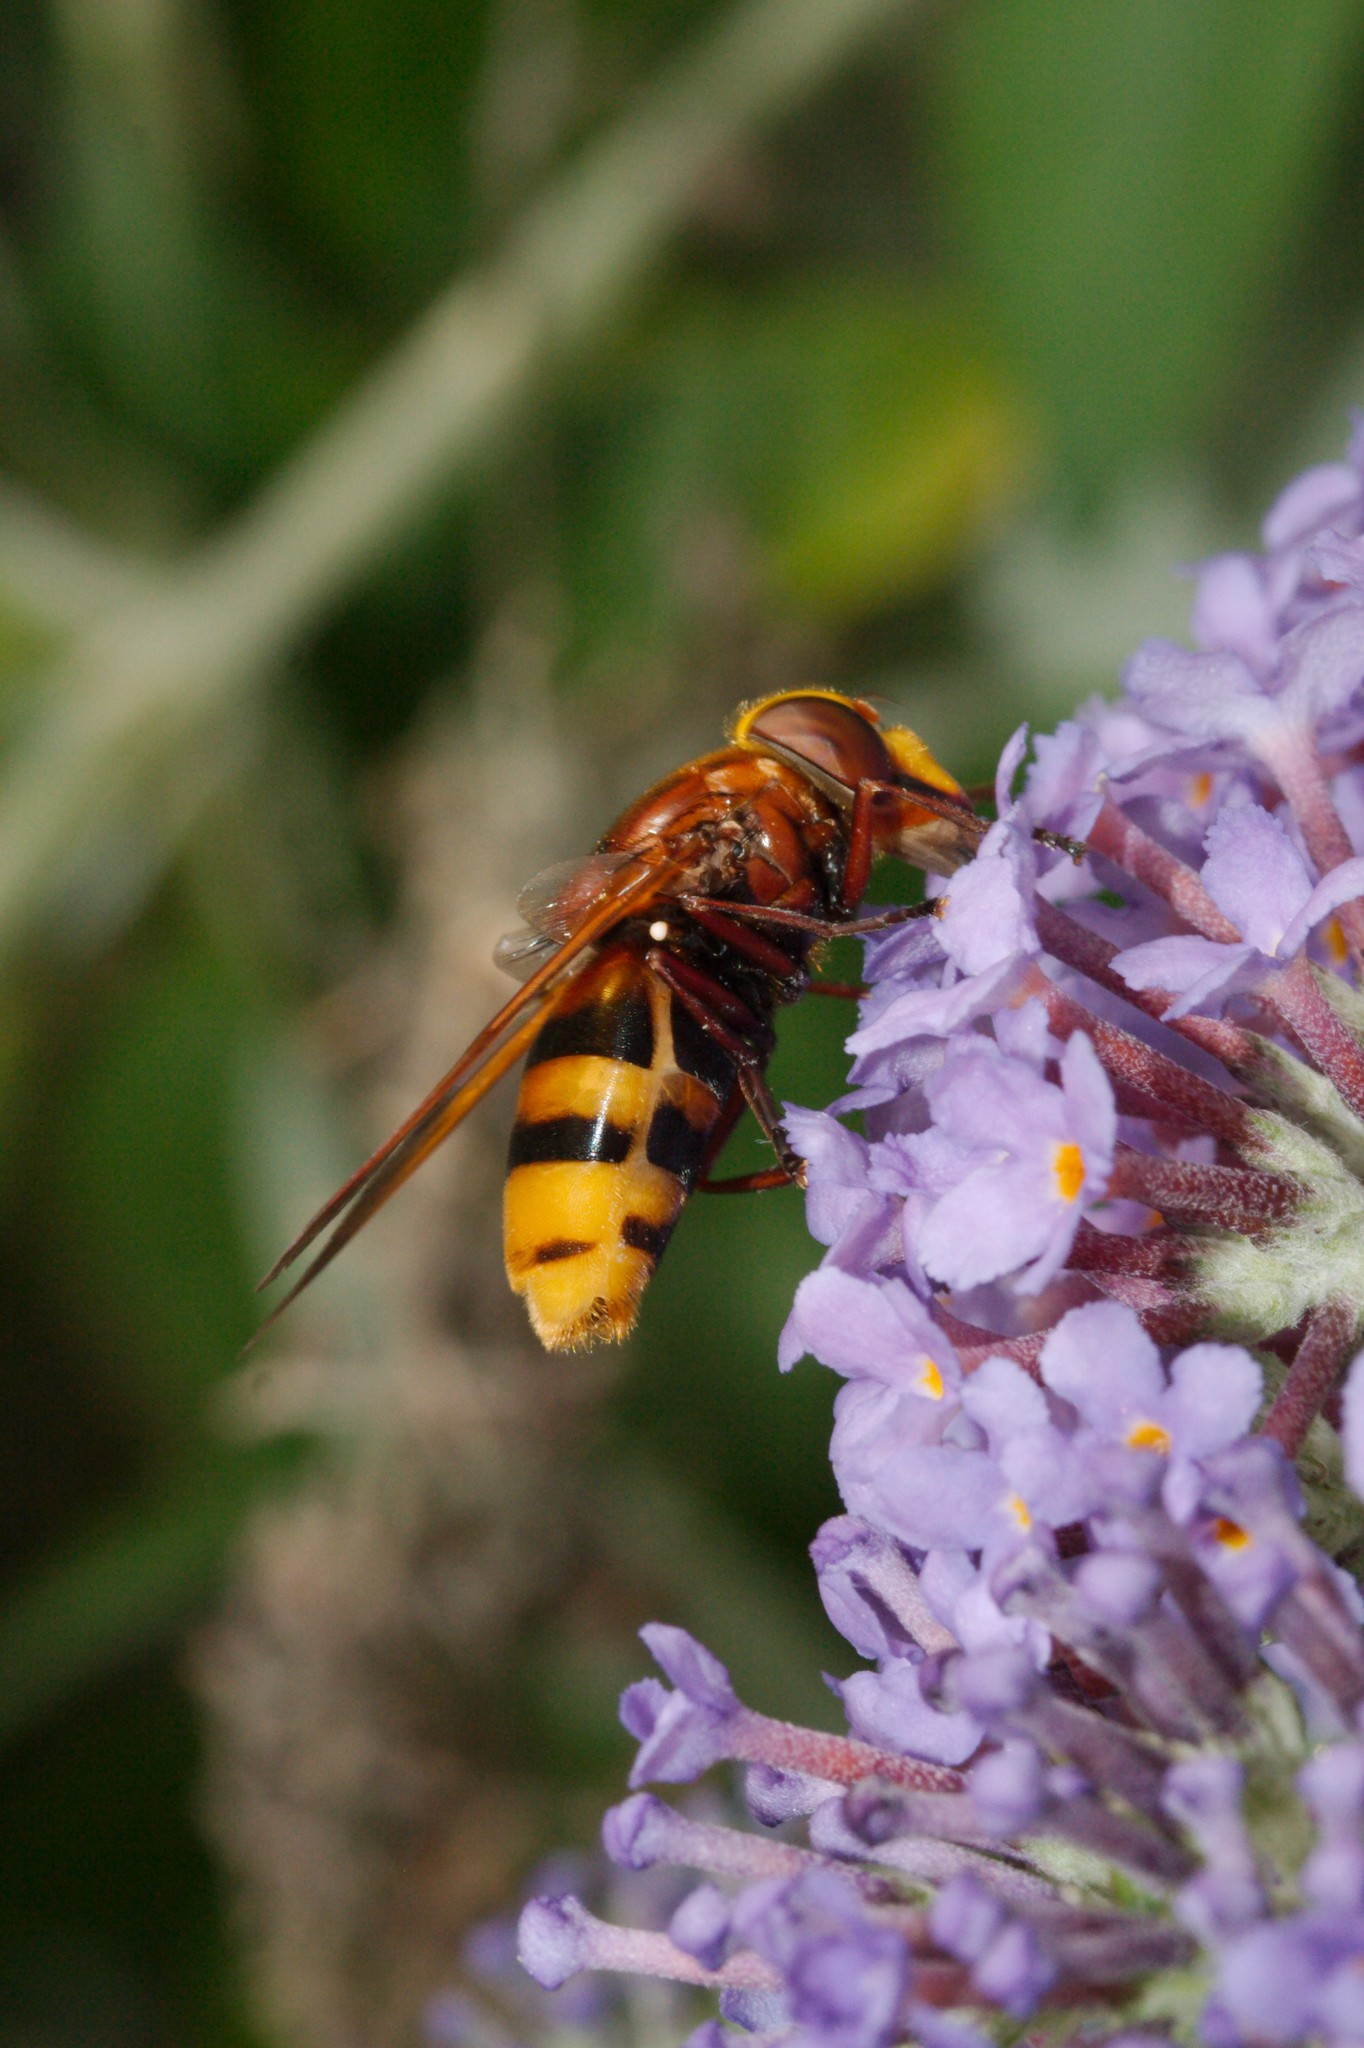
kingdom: Animalia
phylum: Arthropoda
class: Insecta
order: Diptera
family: Syrphidae
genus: Volucella
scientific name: Volucella zonaria
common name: Hornet hoverfly
